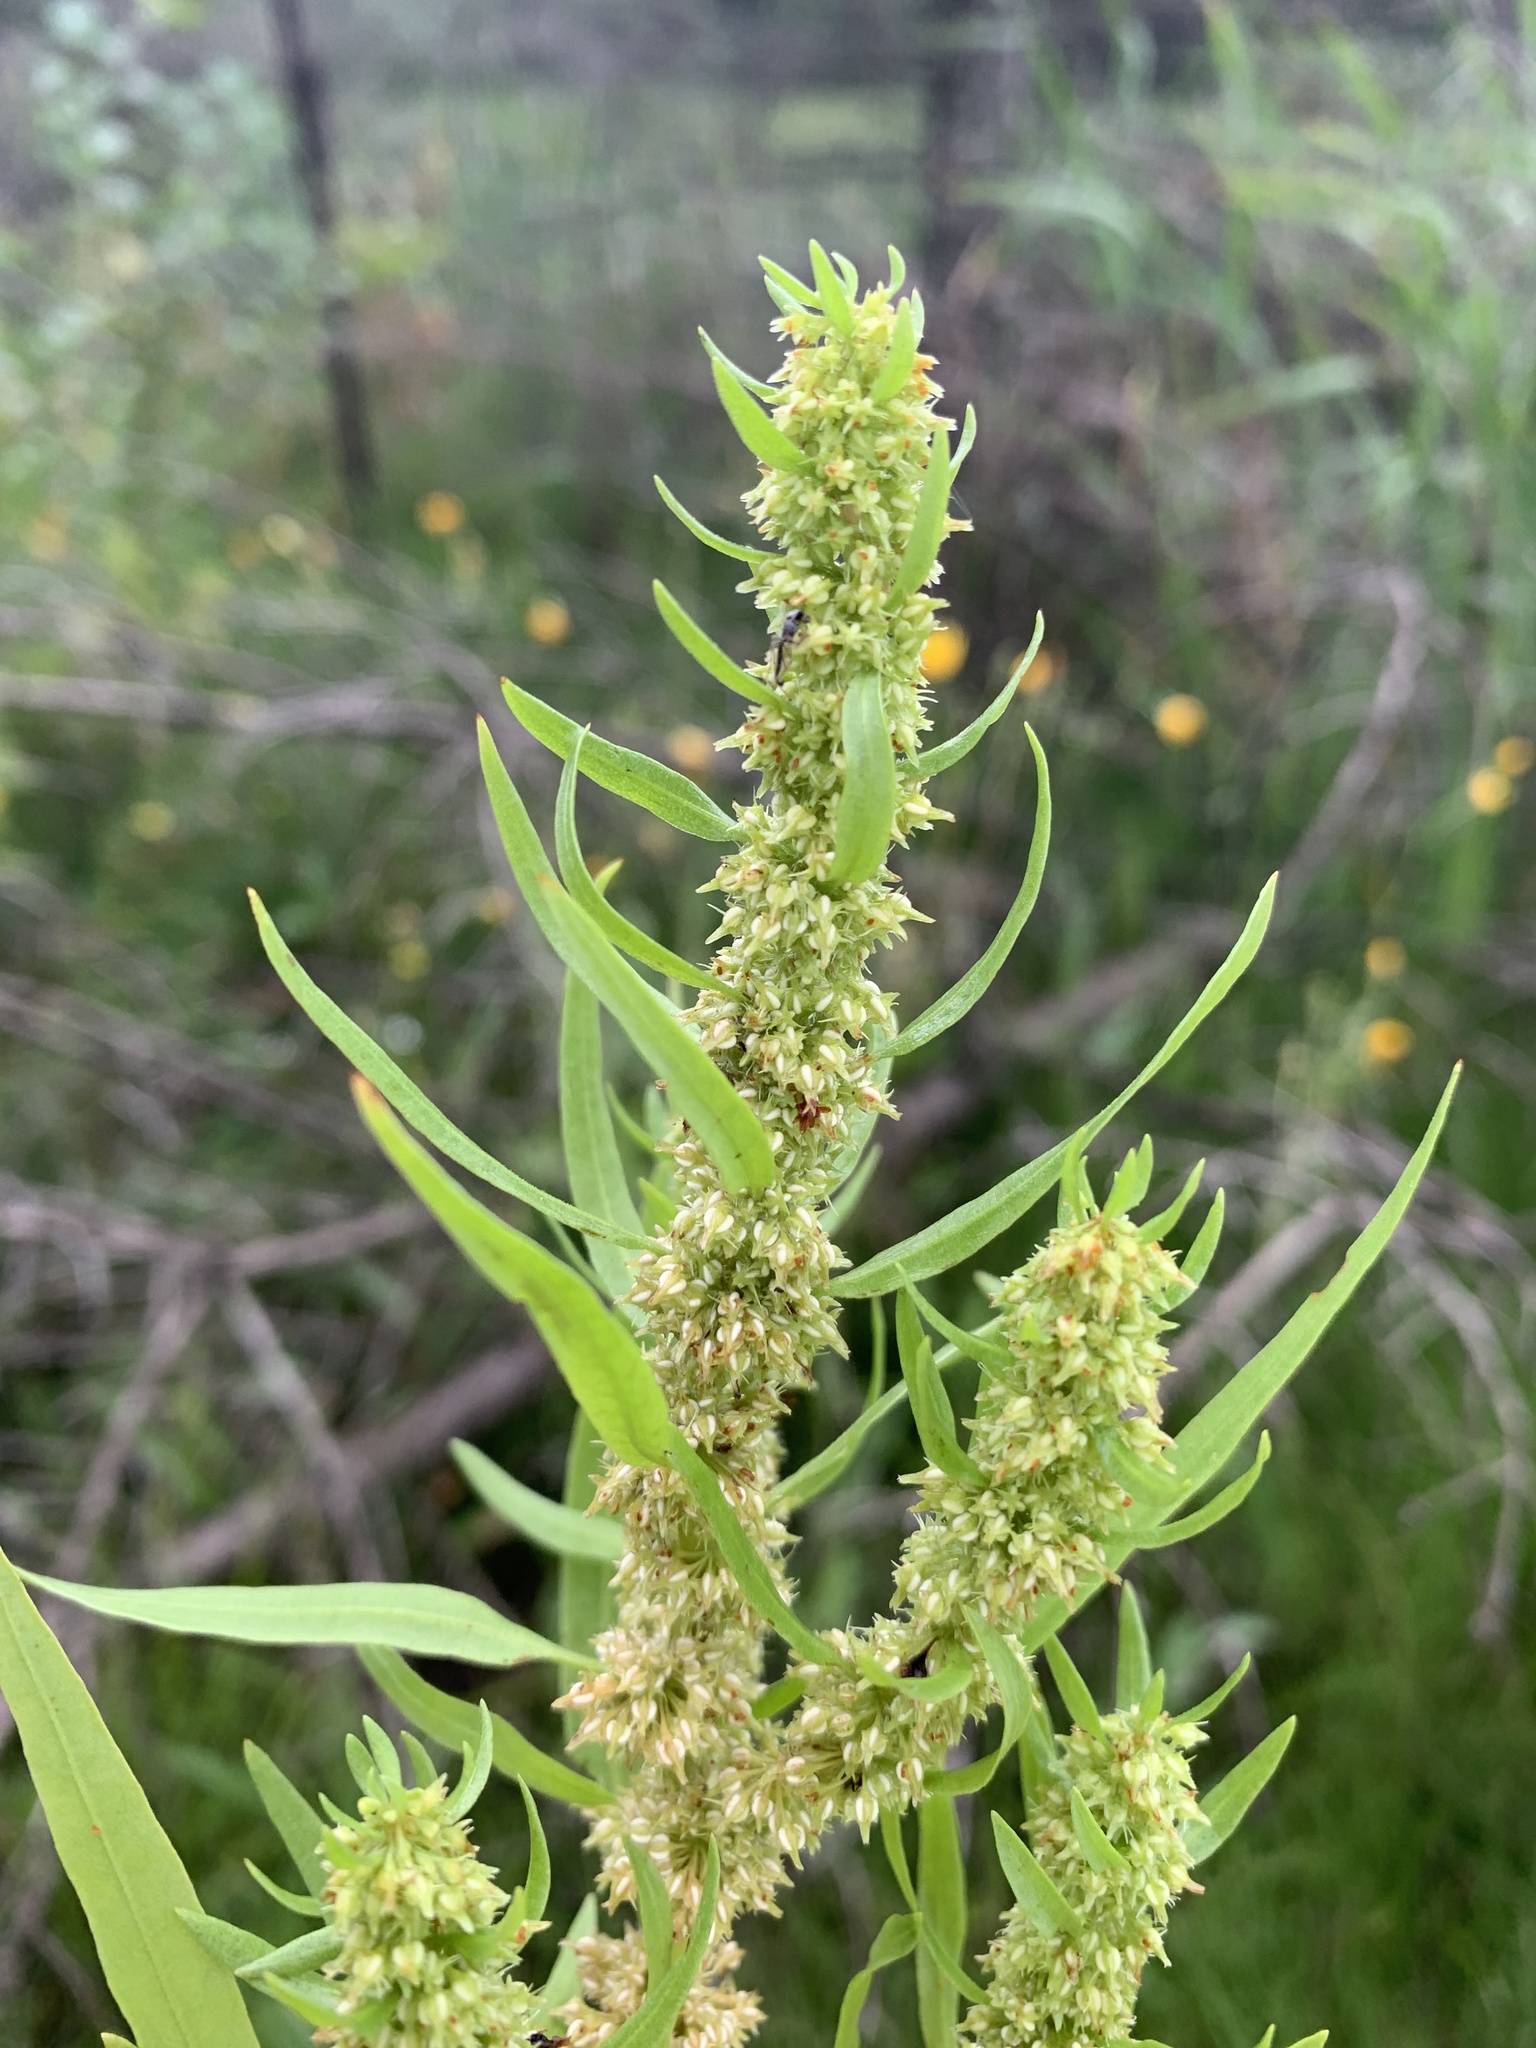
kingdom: Plantae
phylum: Tracheophyta
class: Magnoliopsida
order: Caryophyllales
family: Polygonaceae
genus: Rumex
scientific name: Rumex fueginus
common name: American golden dock
